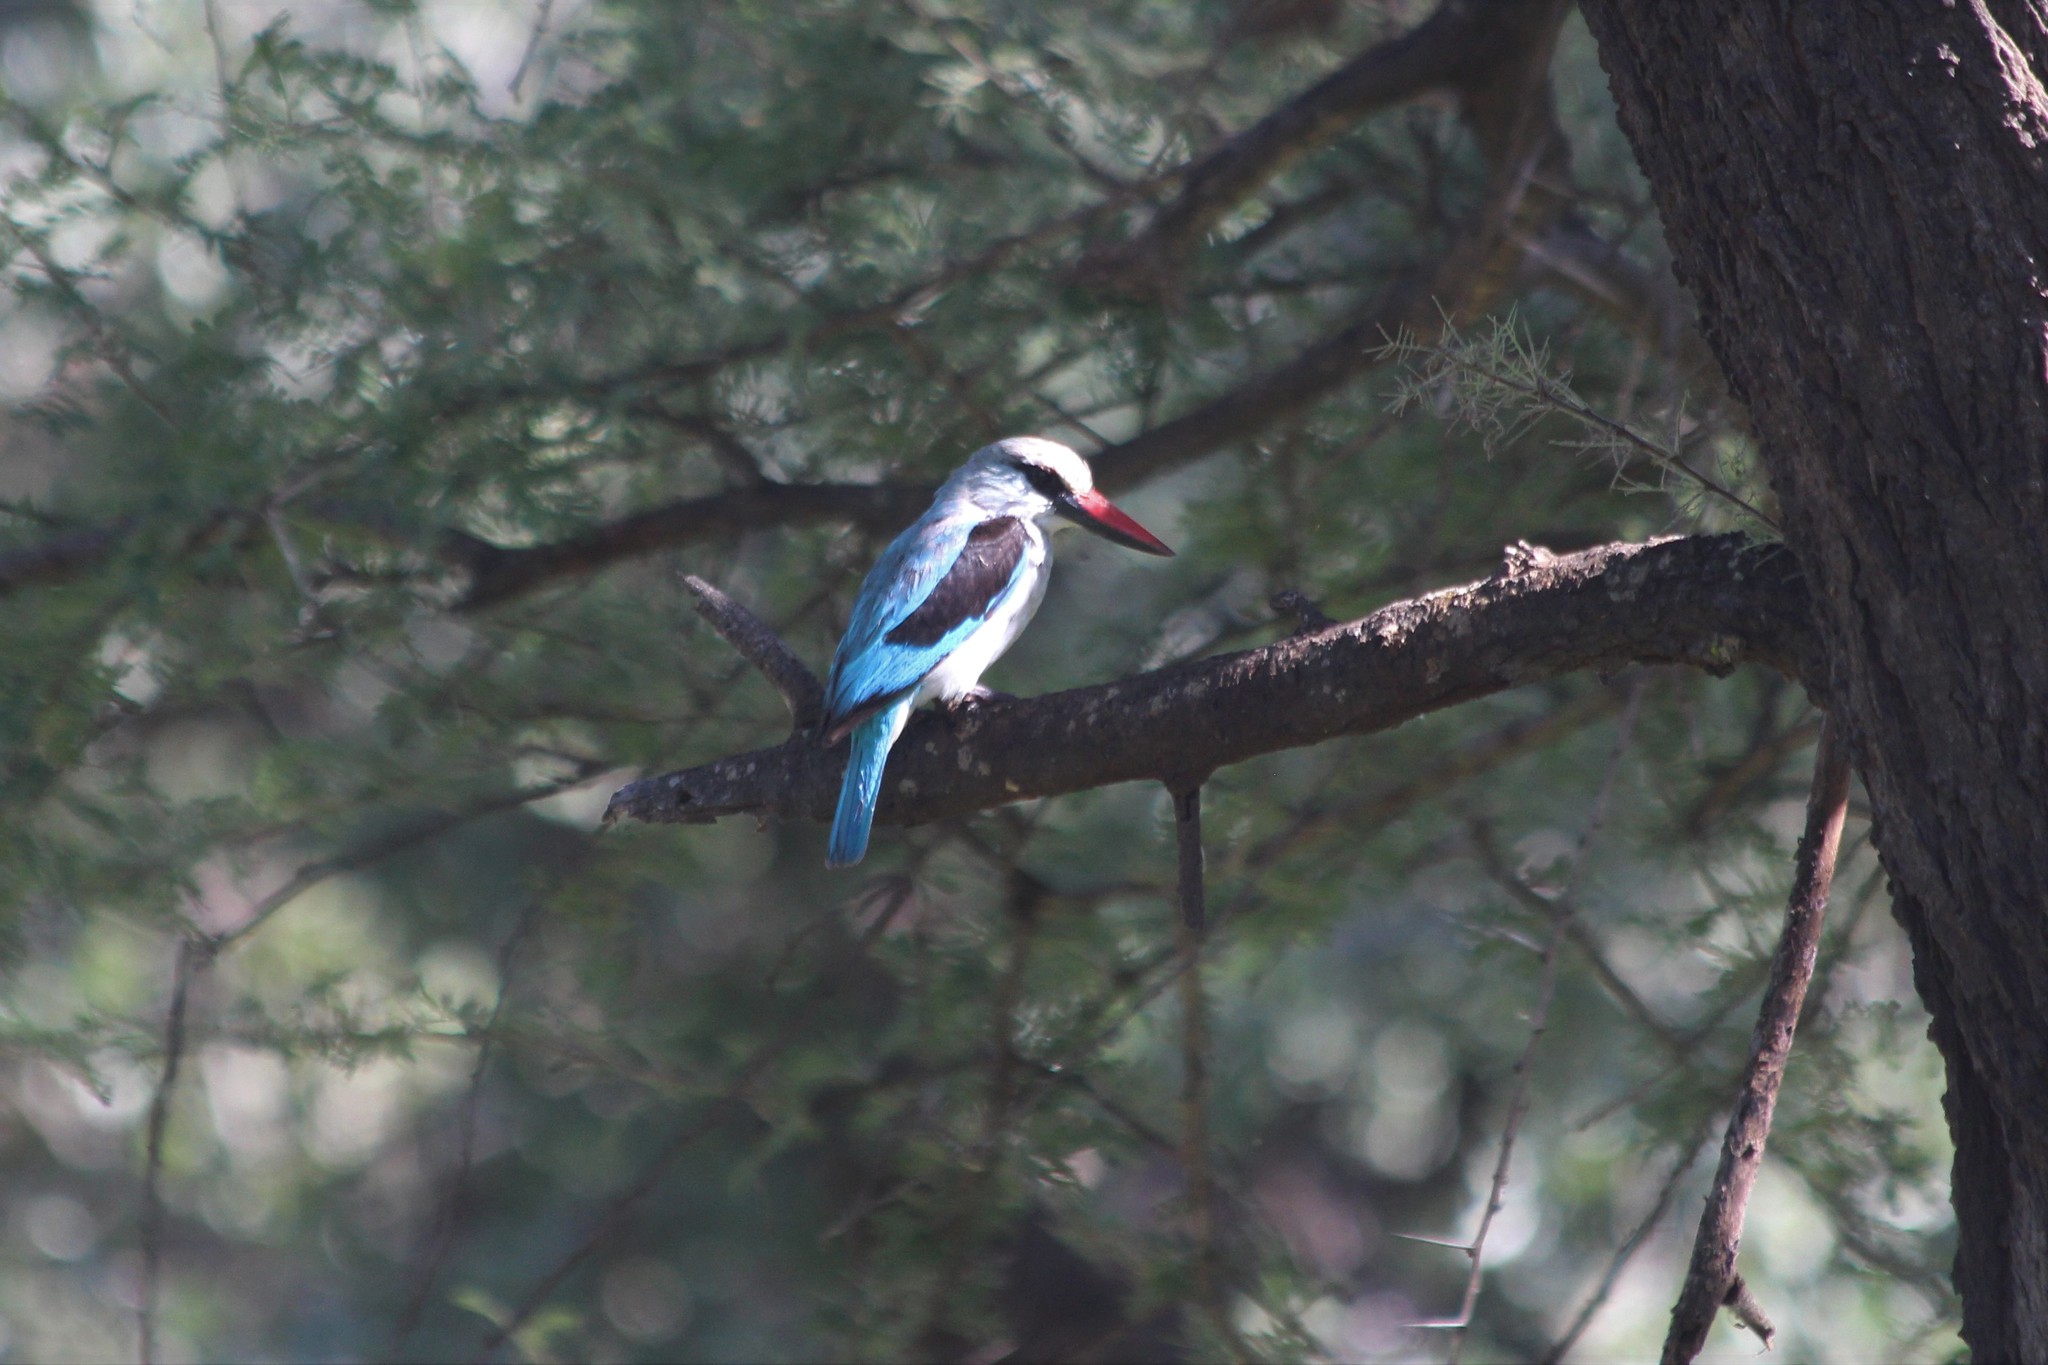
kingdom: Animalia
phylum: Chordata
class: Aves
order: Coraciiformes
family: Alcedinidae
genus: Halcyon
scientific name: Halcyon senegalensis
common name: Woodland kingfisher
